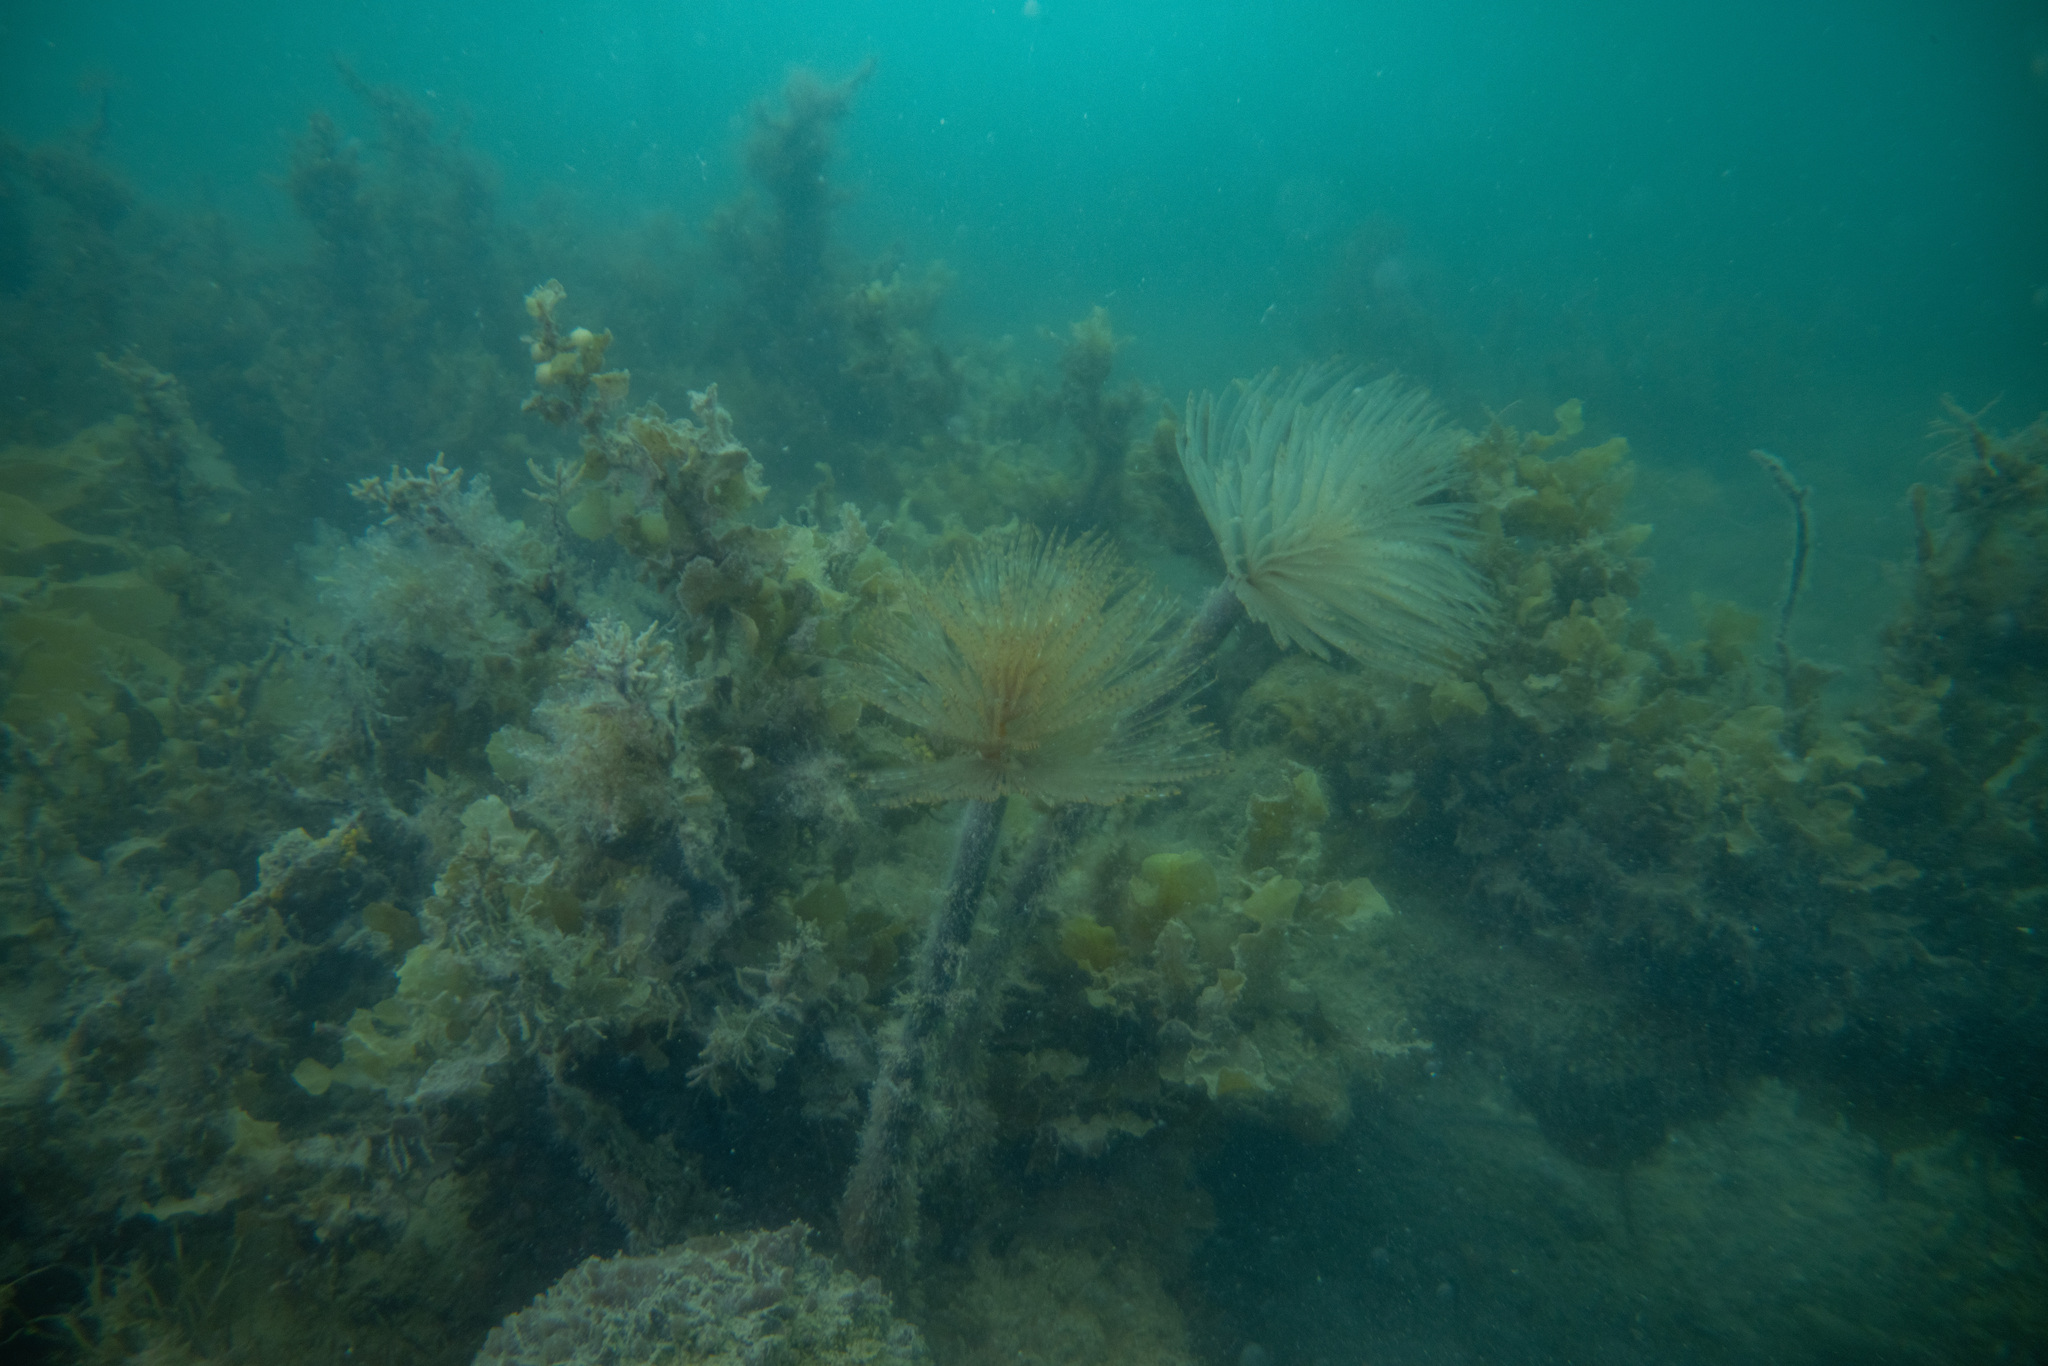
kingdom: Animalia
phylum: Annelida
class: Polychaeta
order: Sabellida
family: Sabellidae
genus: Sabella
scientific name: Sabella spallanzanii
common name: Feather duster worm
